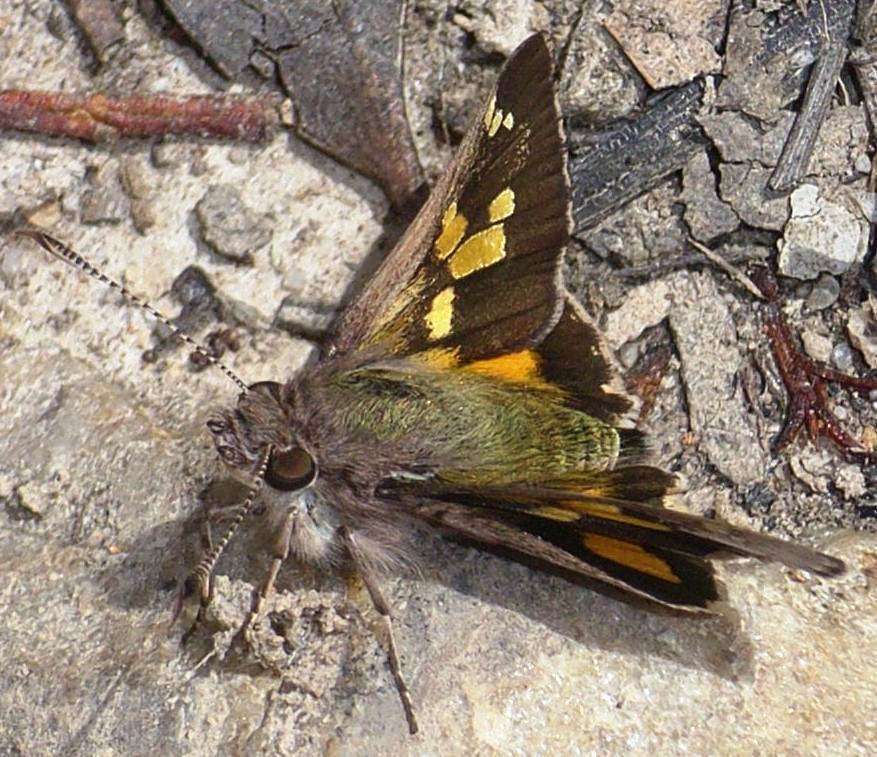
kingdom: Animalia
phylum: Arthropoda
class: Insecta
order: Lepidoptera
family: Hesperiidae
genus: Trapezites
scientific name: Trapezites phigalioides
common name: Montane ochre
